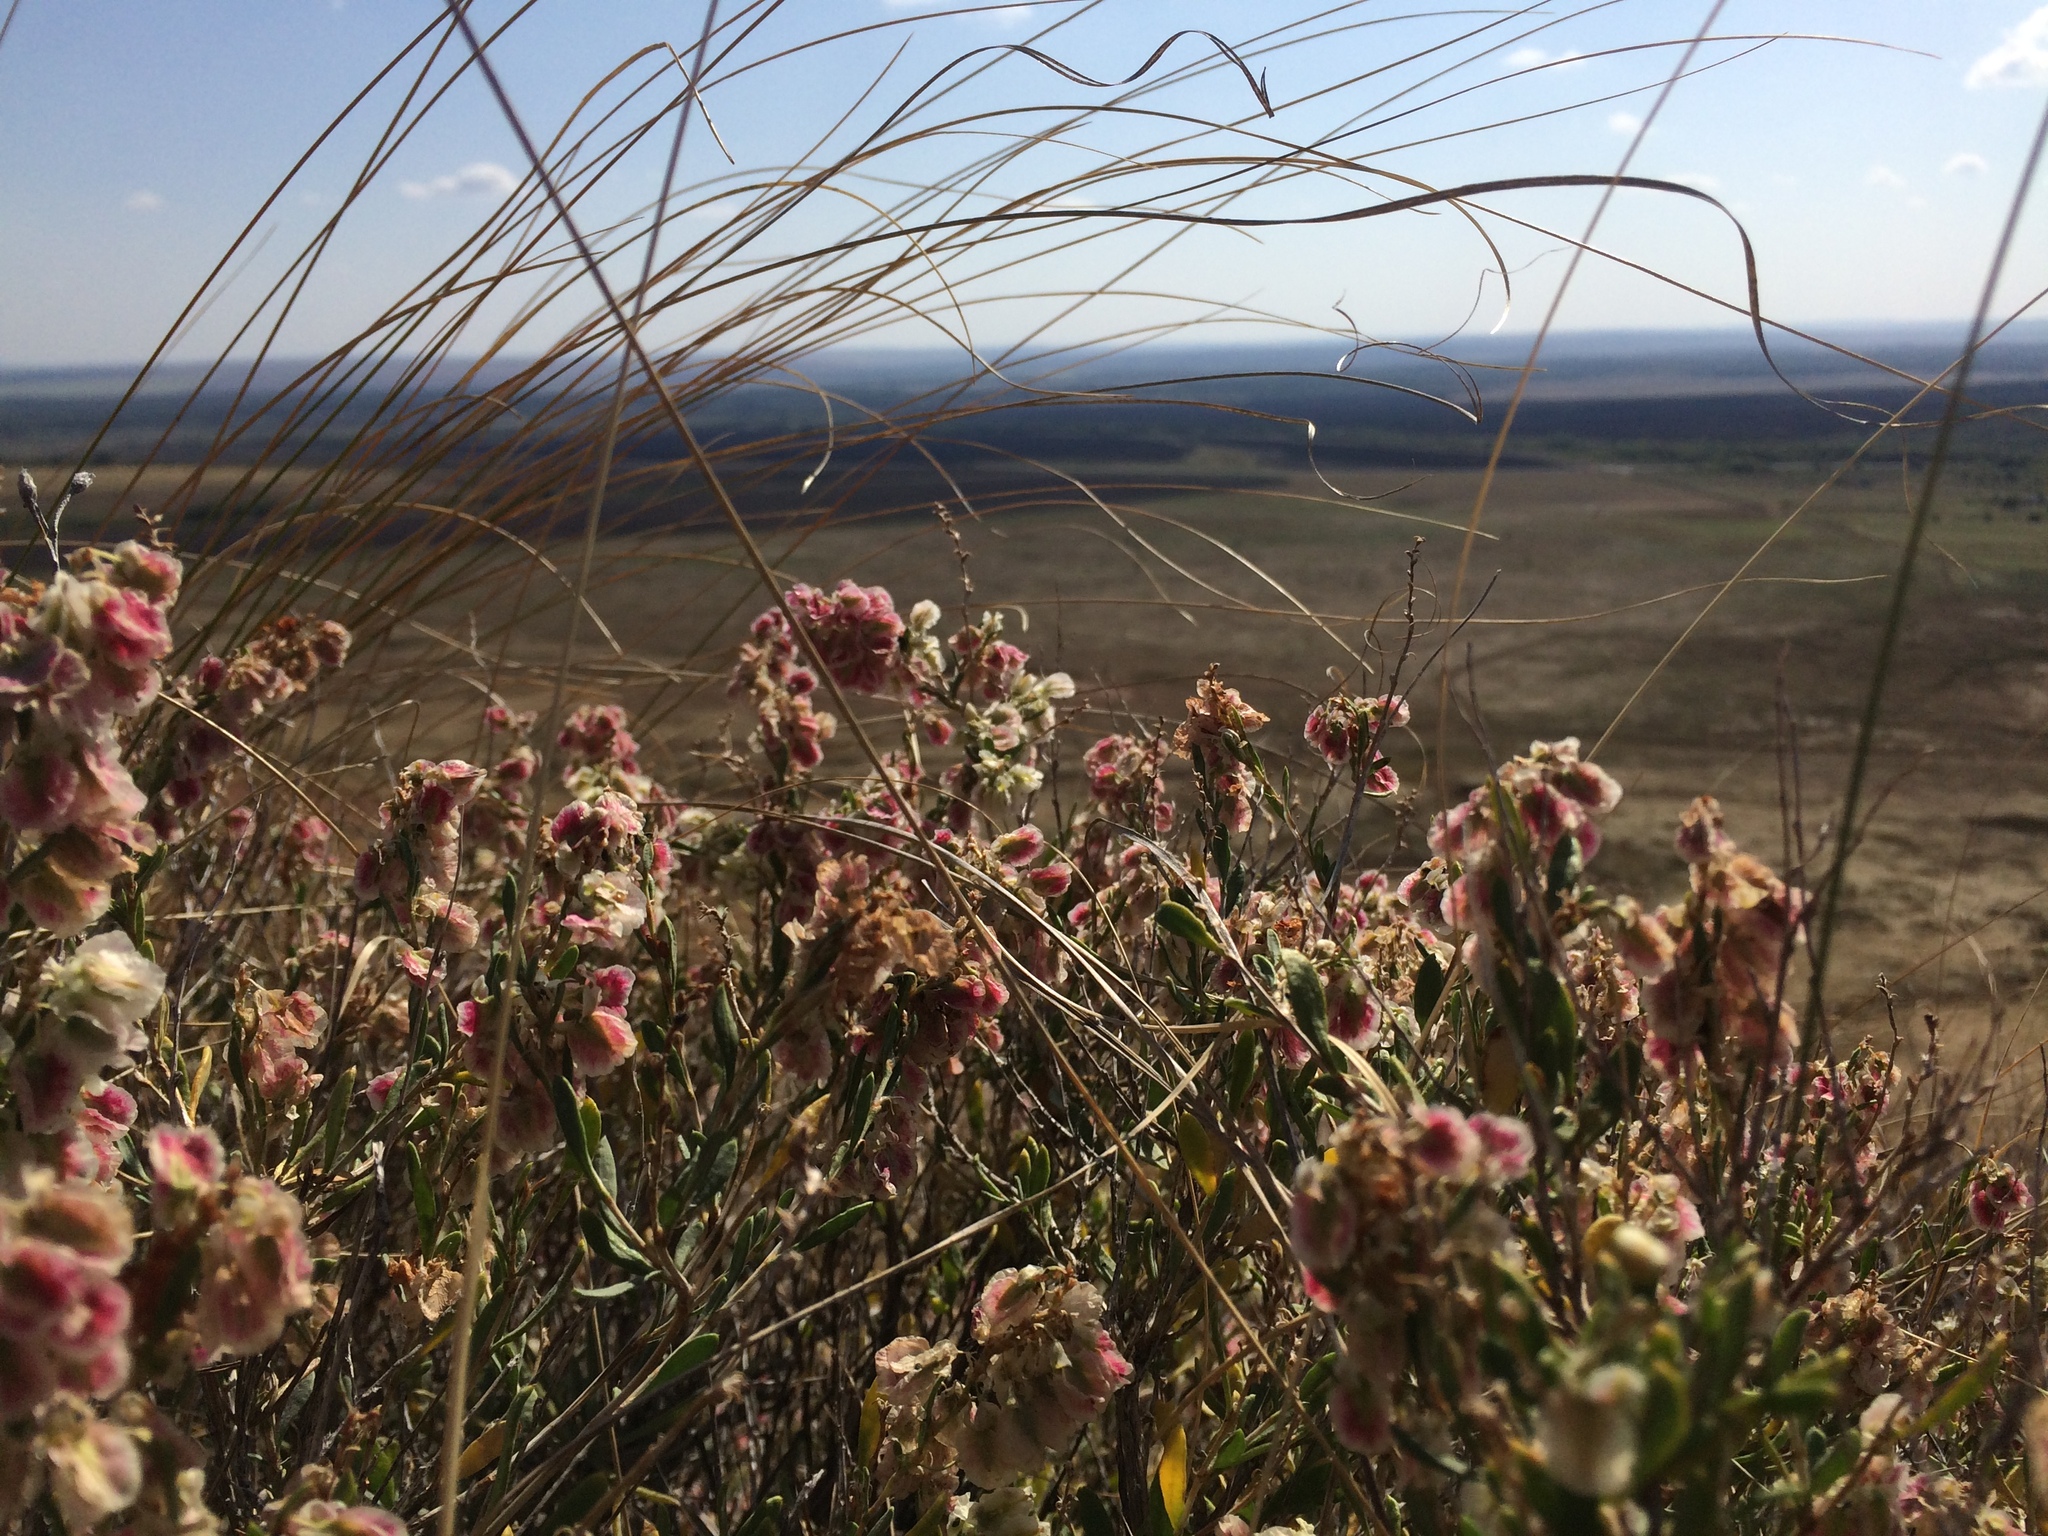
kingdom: Plantae
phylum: Tracheophyta
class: Magnoliopsida
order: Caryophyllales
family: Polygonaceae
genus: Atraphaxis
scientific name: Atraphaxis frutescens
